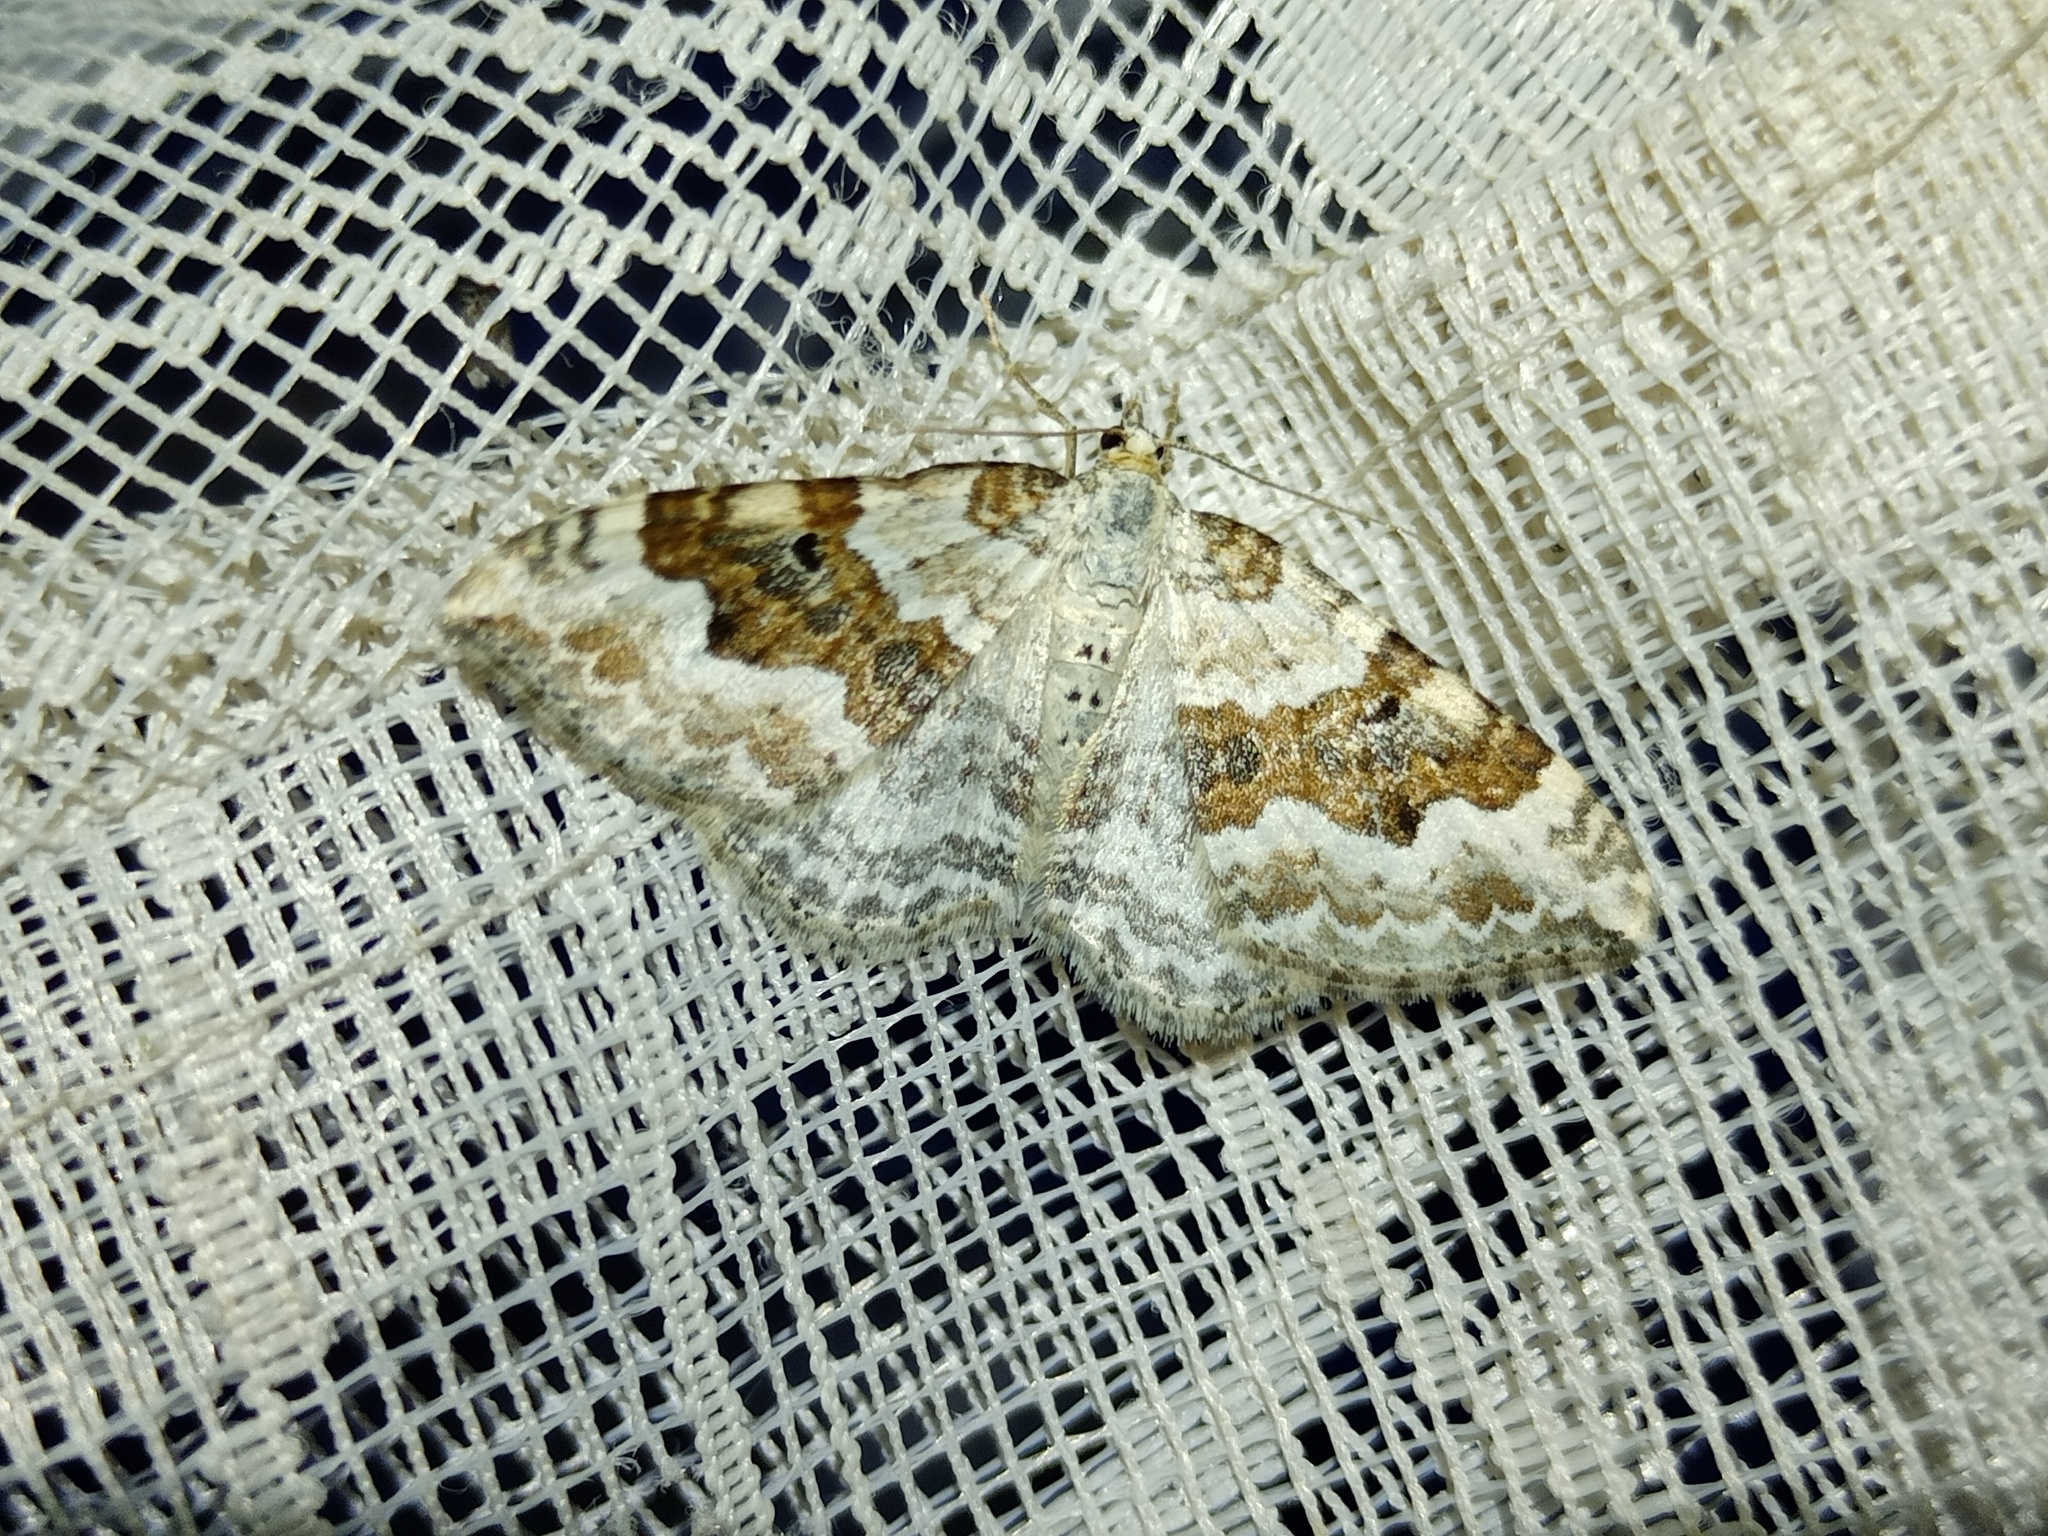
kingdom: Animalia
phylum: Arthropoda
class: Insecta
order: Lepidoptera
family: Geometridae
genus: Xanthorhoe
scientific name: Xanthorhoe montanata
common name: Silver-ground carpet
